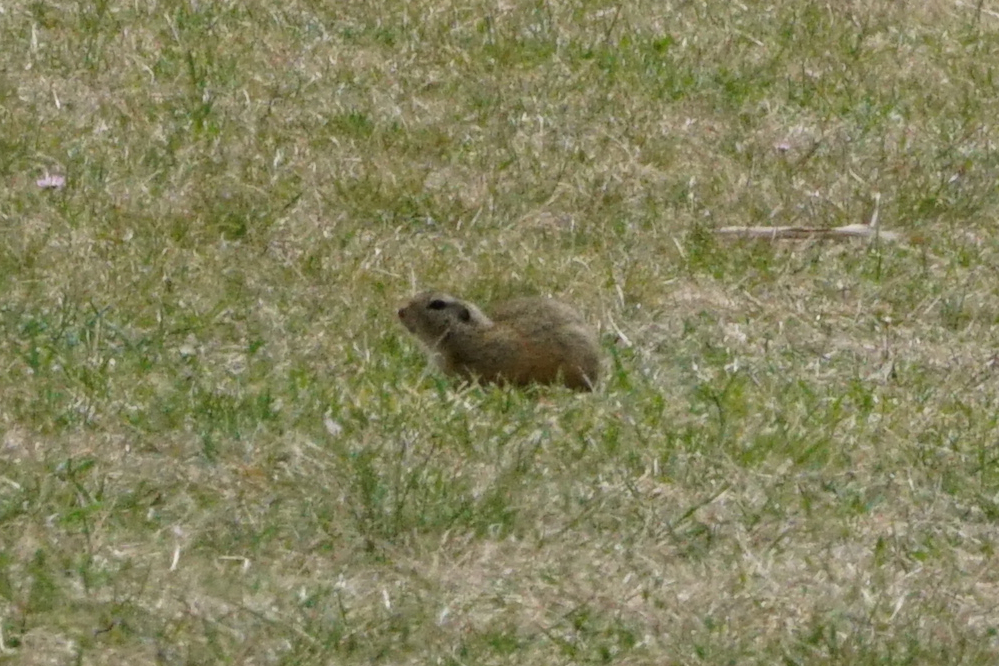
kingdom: Animalia
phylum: Chordata
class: Mammalia
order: Rodentia
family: Sciuridae
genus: Spermophilus
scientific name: Spermophilus citellus
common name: European ground squirrel
